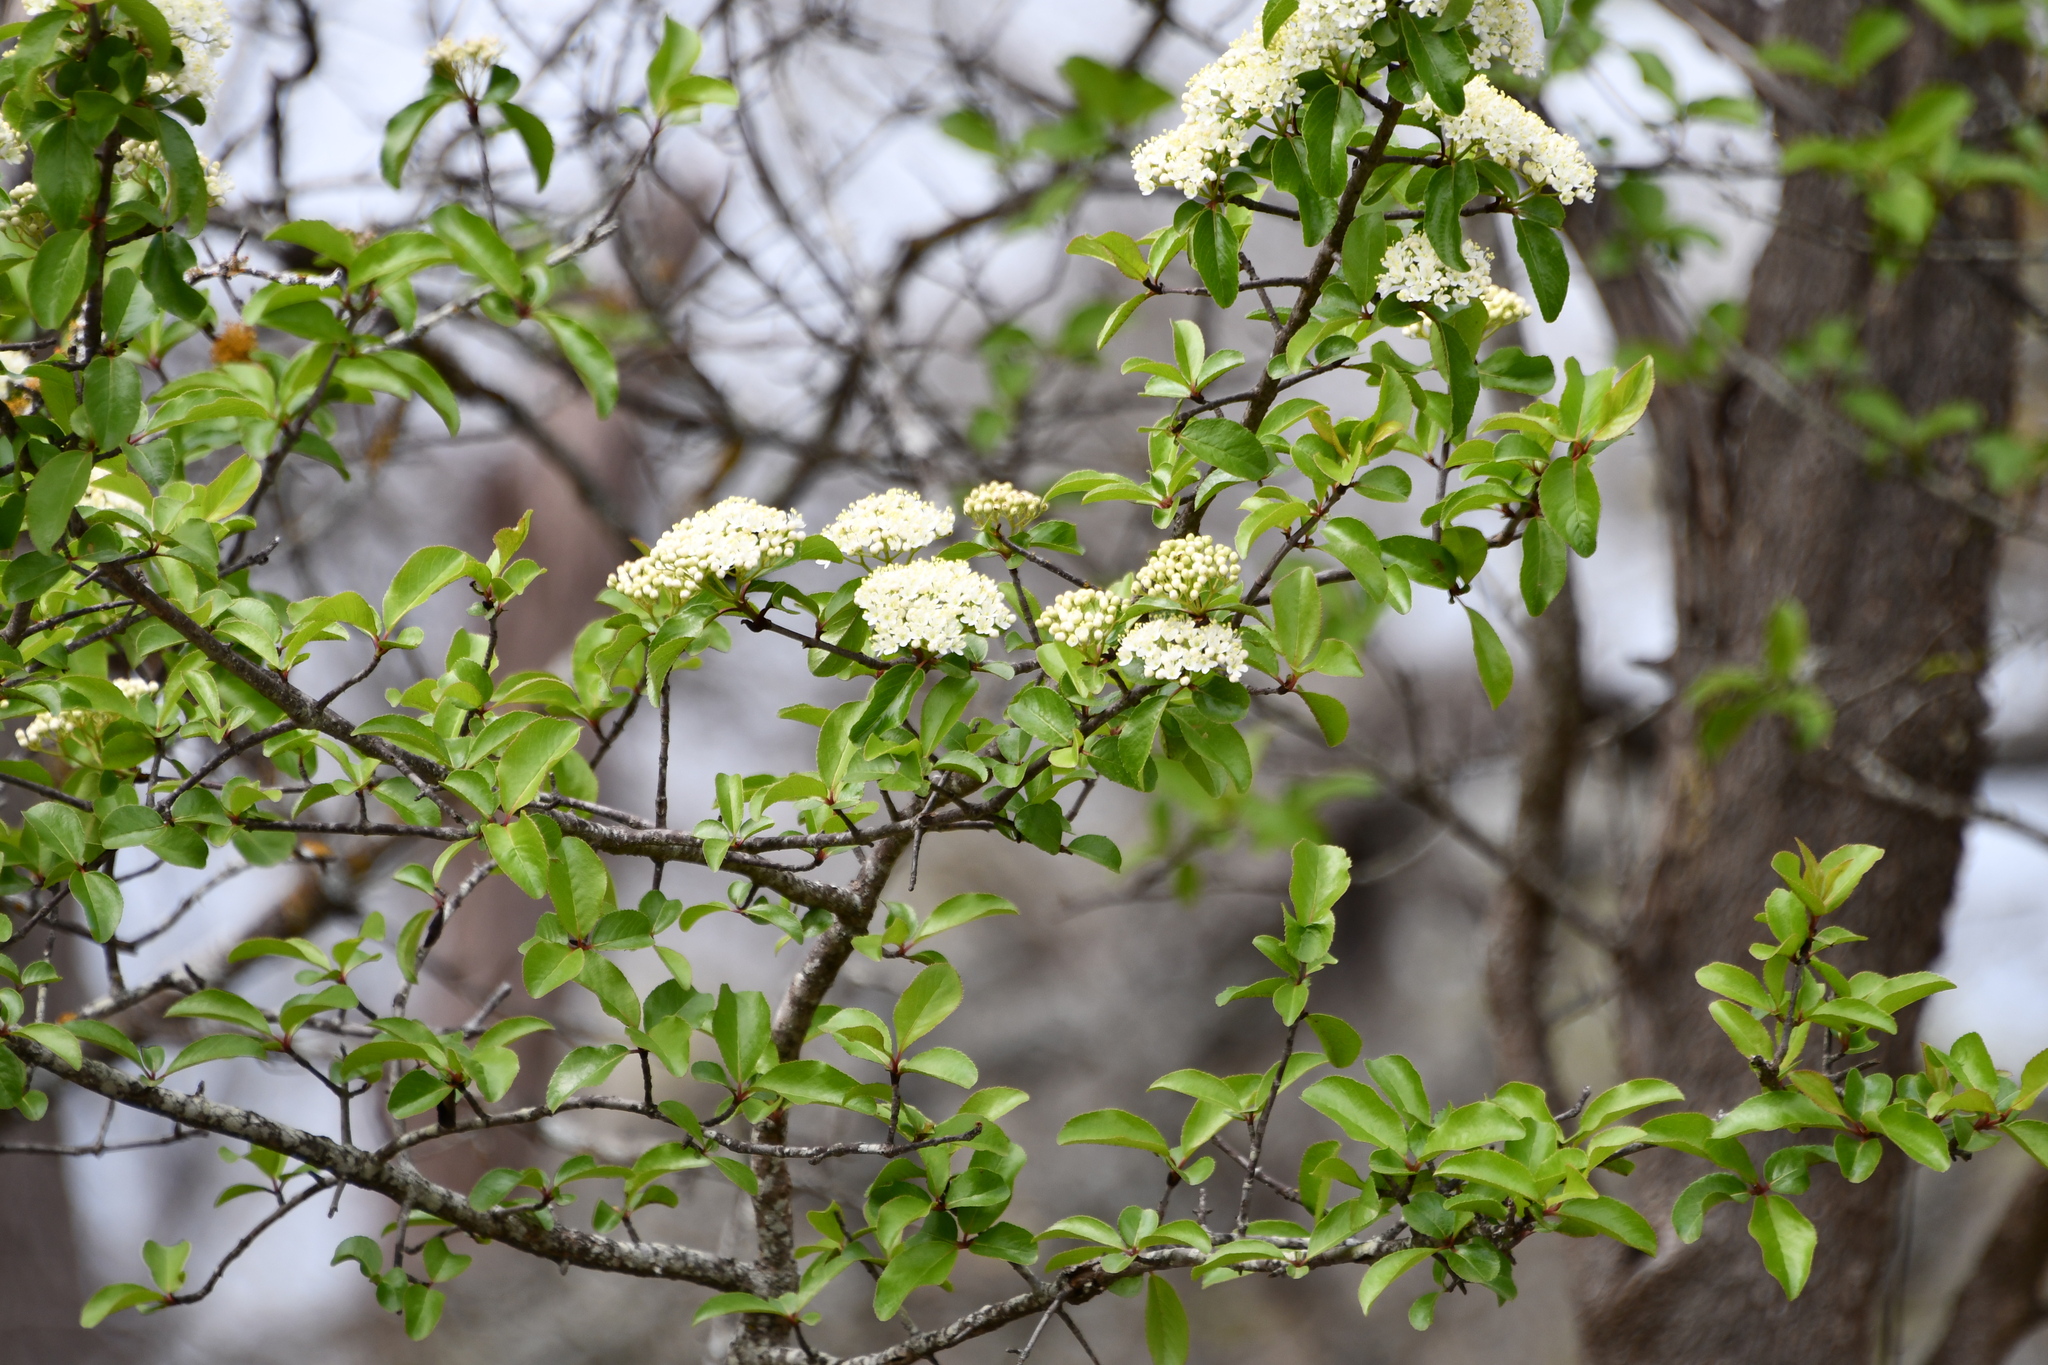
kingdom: Plantae
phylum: Tracheophyta
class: Magnoliopsida
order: Dipsacales
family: Viburnaceae
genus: Viburnum
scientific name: Viburnum rufidulum
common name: Blue haw
